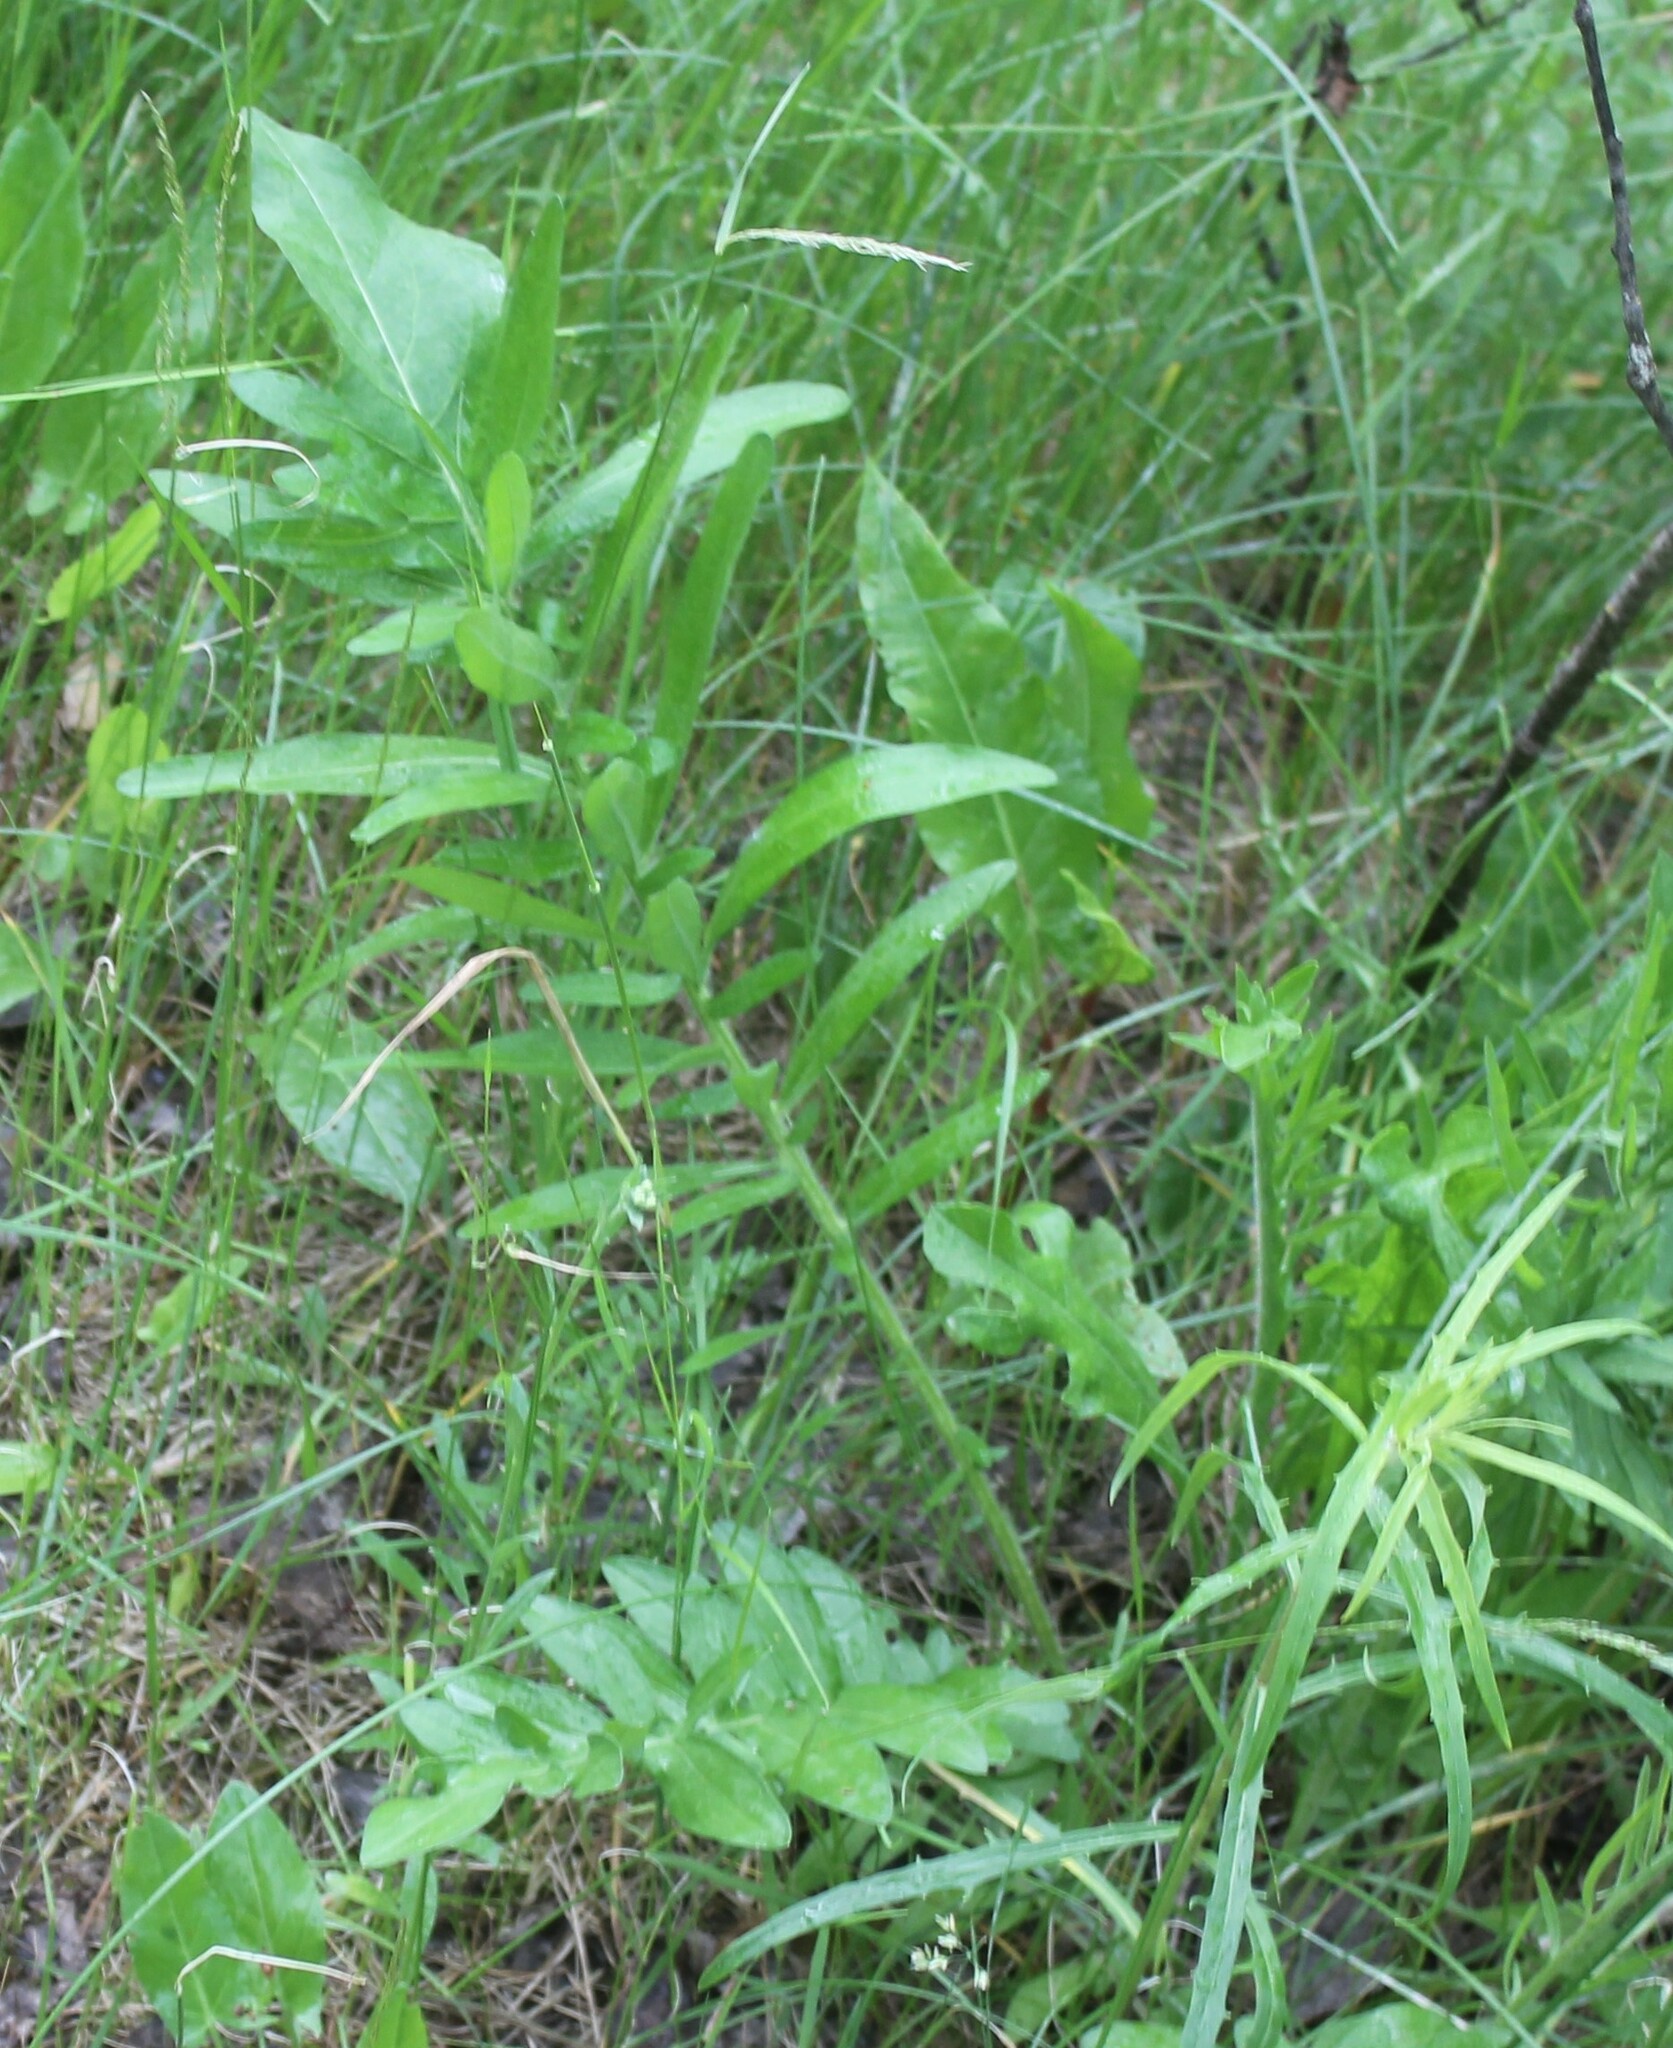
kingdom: Plantae
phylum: Tracheophyta
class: Magnoliopsida
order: Asterales
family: Asteraceae
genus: Centaurea
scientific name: Centaurea scabiosa
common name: Greater knapweed
